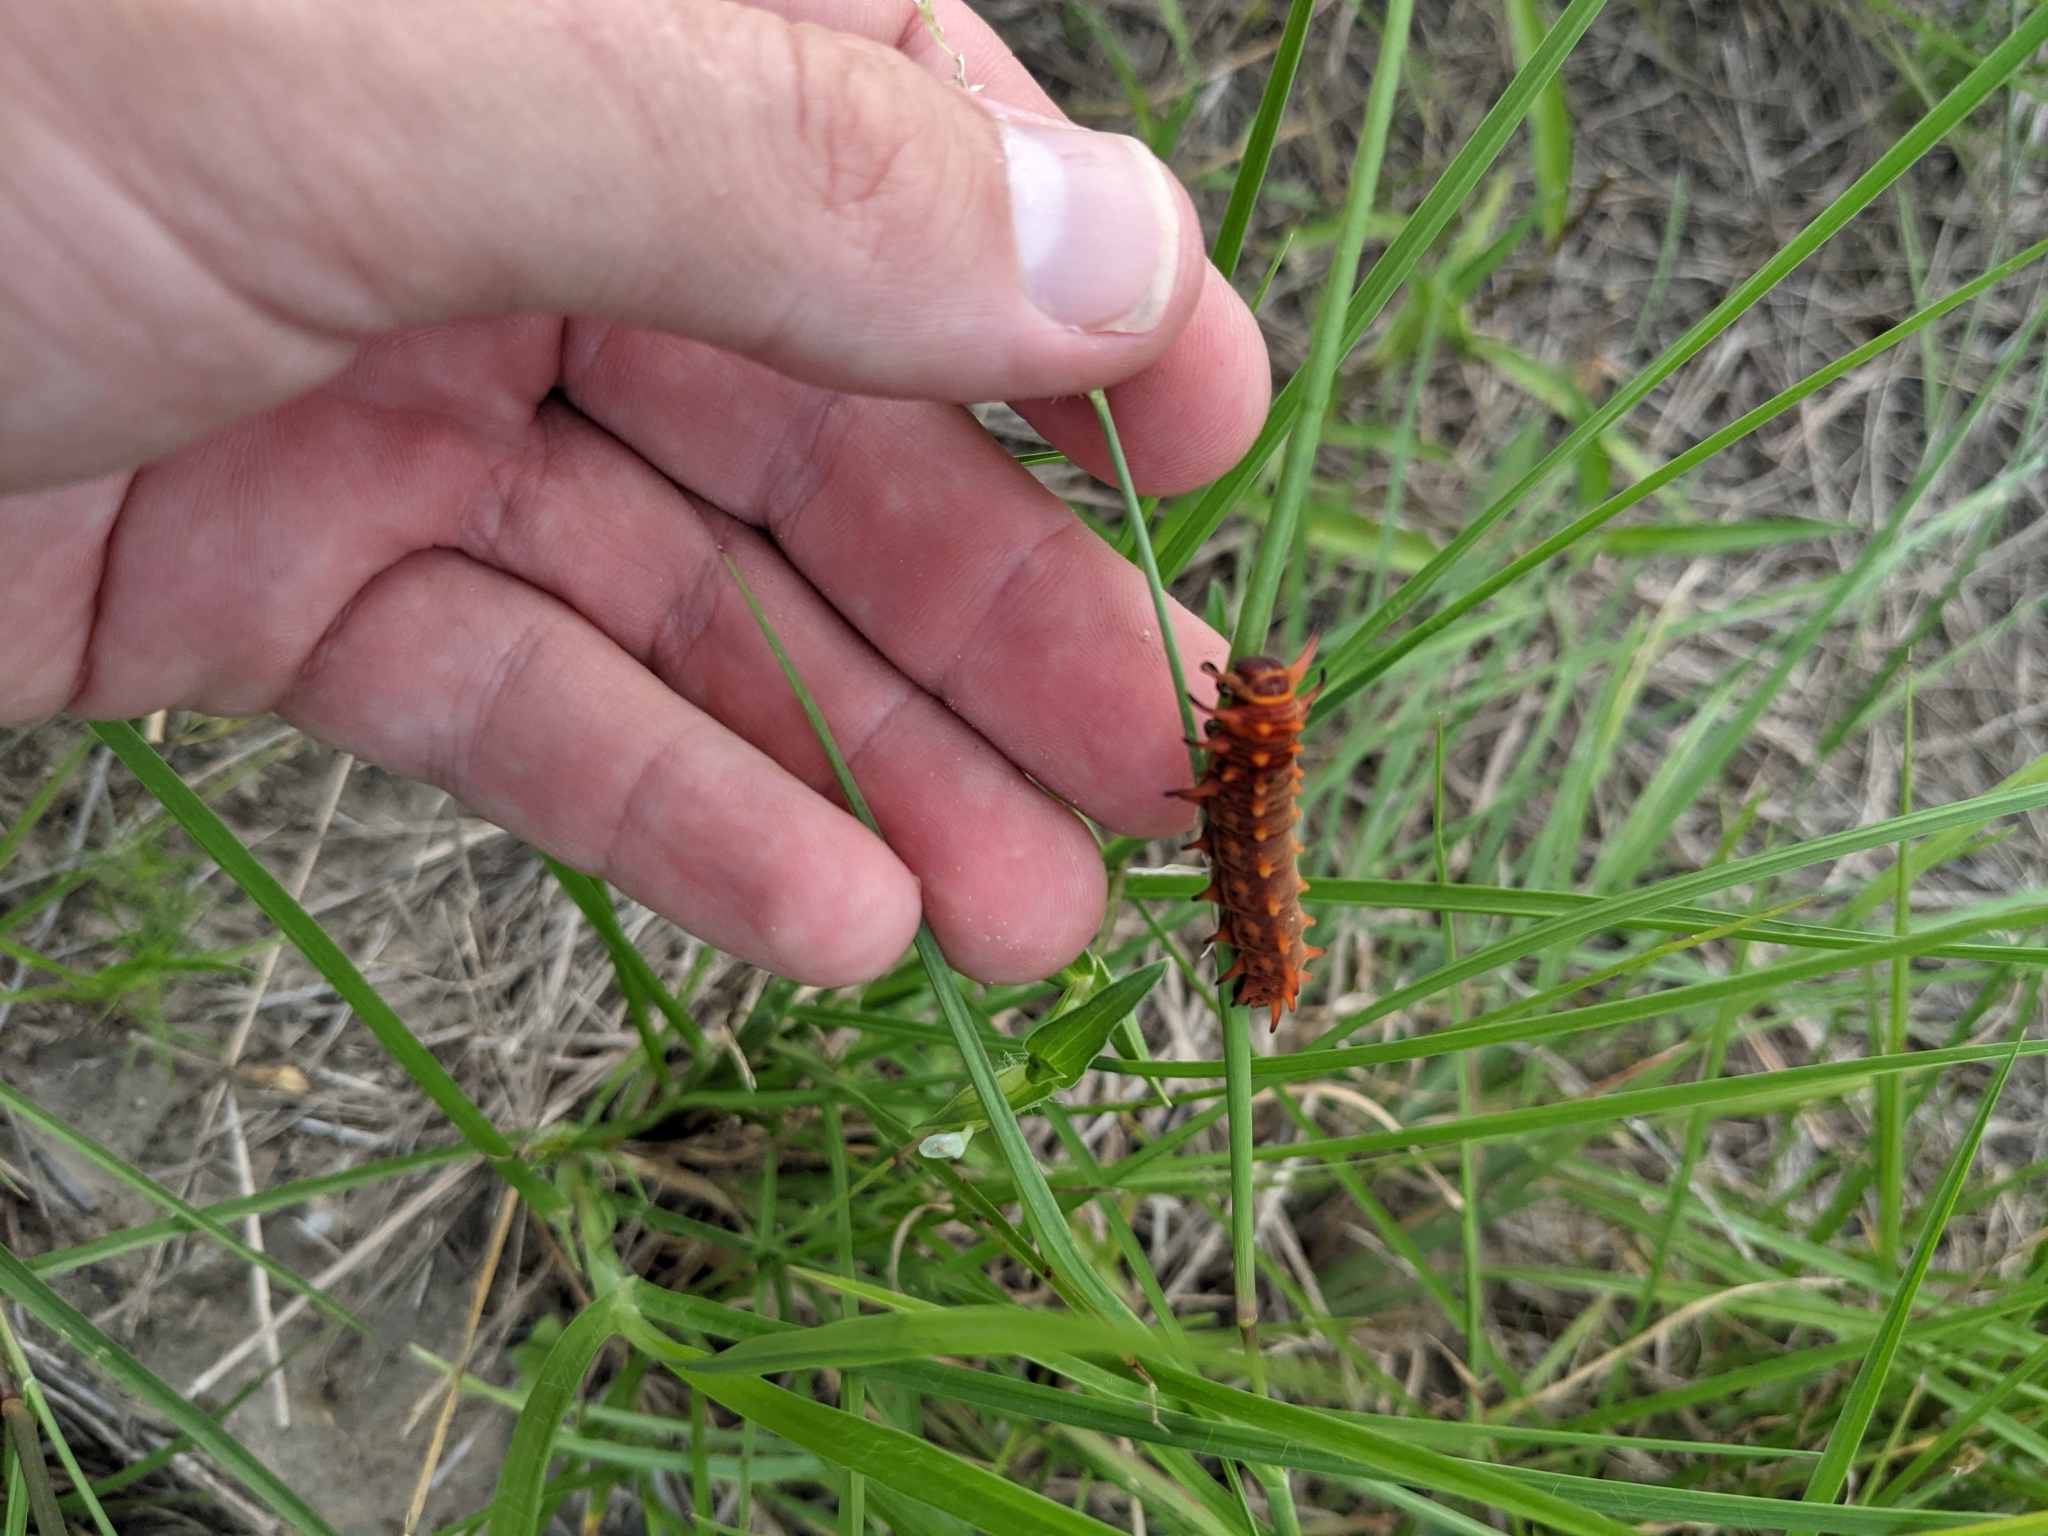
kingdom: Animalia
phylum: Arthropoda
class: Insecta
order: Lepidoptera
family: Papilionidae
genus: Battus
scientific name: Battus philenor
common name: Pipevine swallowtail
